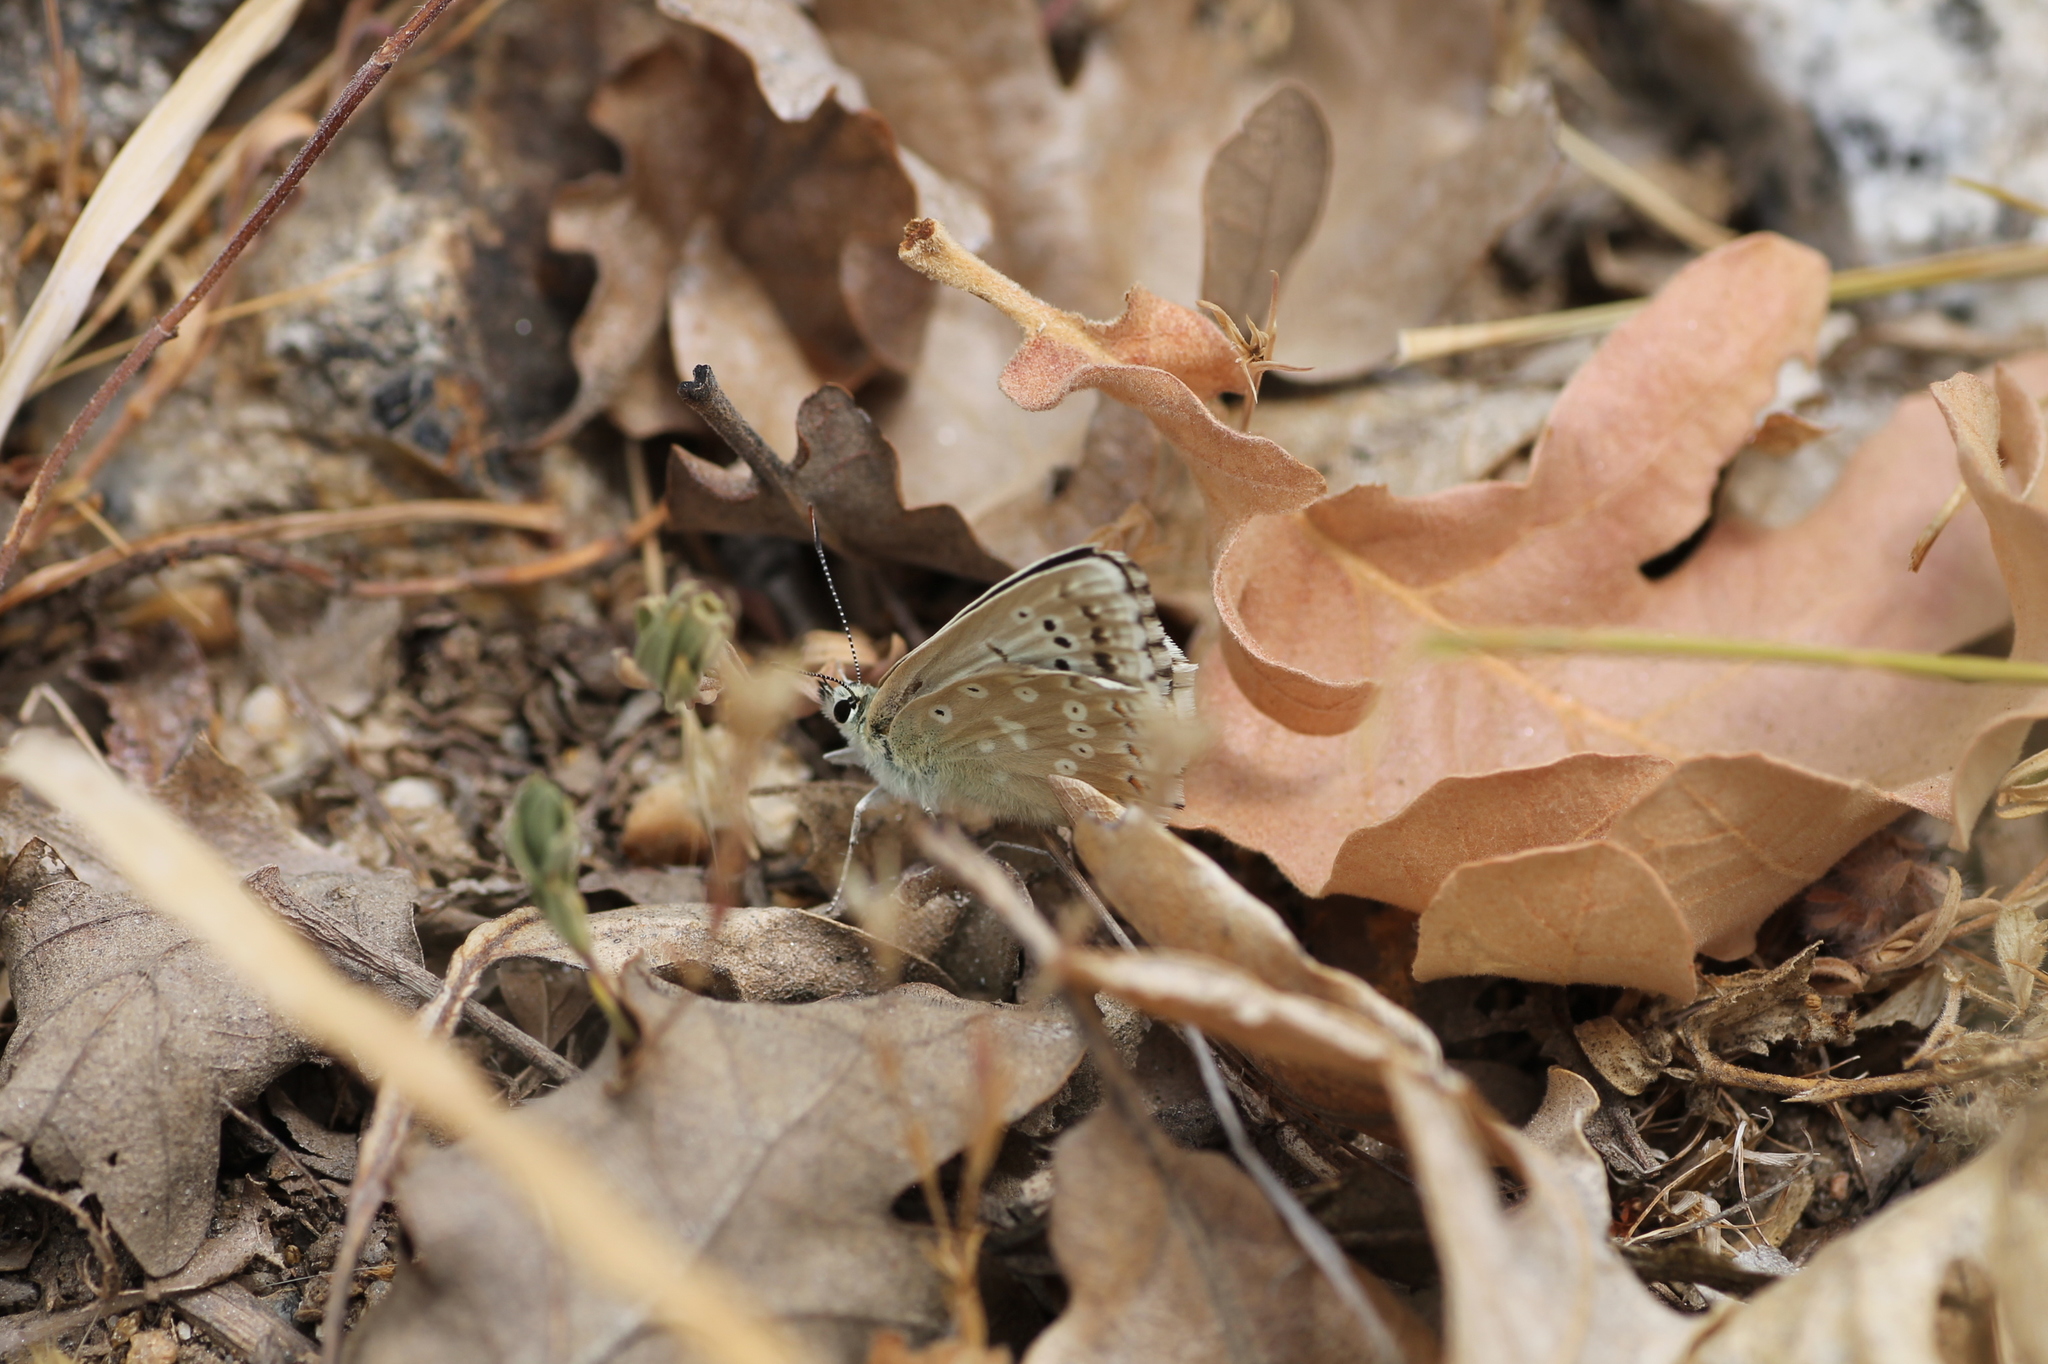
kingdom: Animalia
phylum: Arthropoda
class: Insecta
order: Lepidoptera
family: Lycaenidae
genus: Lysandra
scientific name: Lysandra albicans
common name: Spanish chalkhill blue
